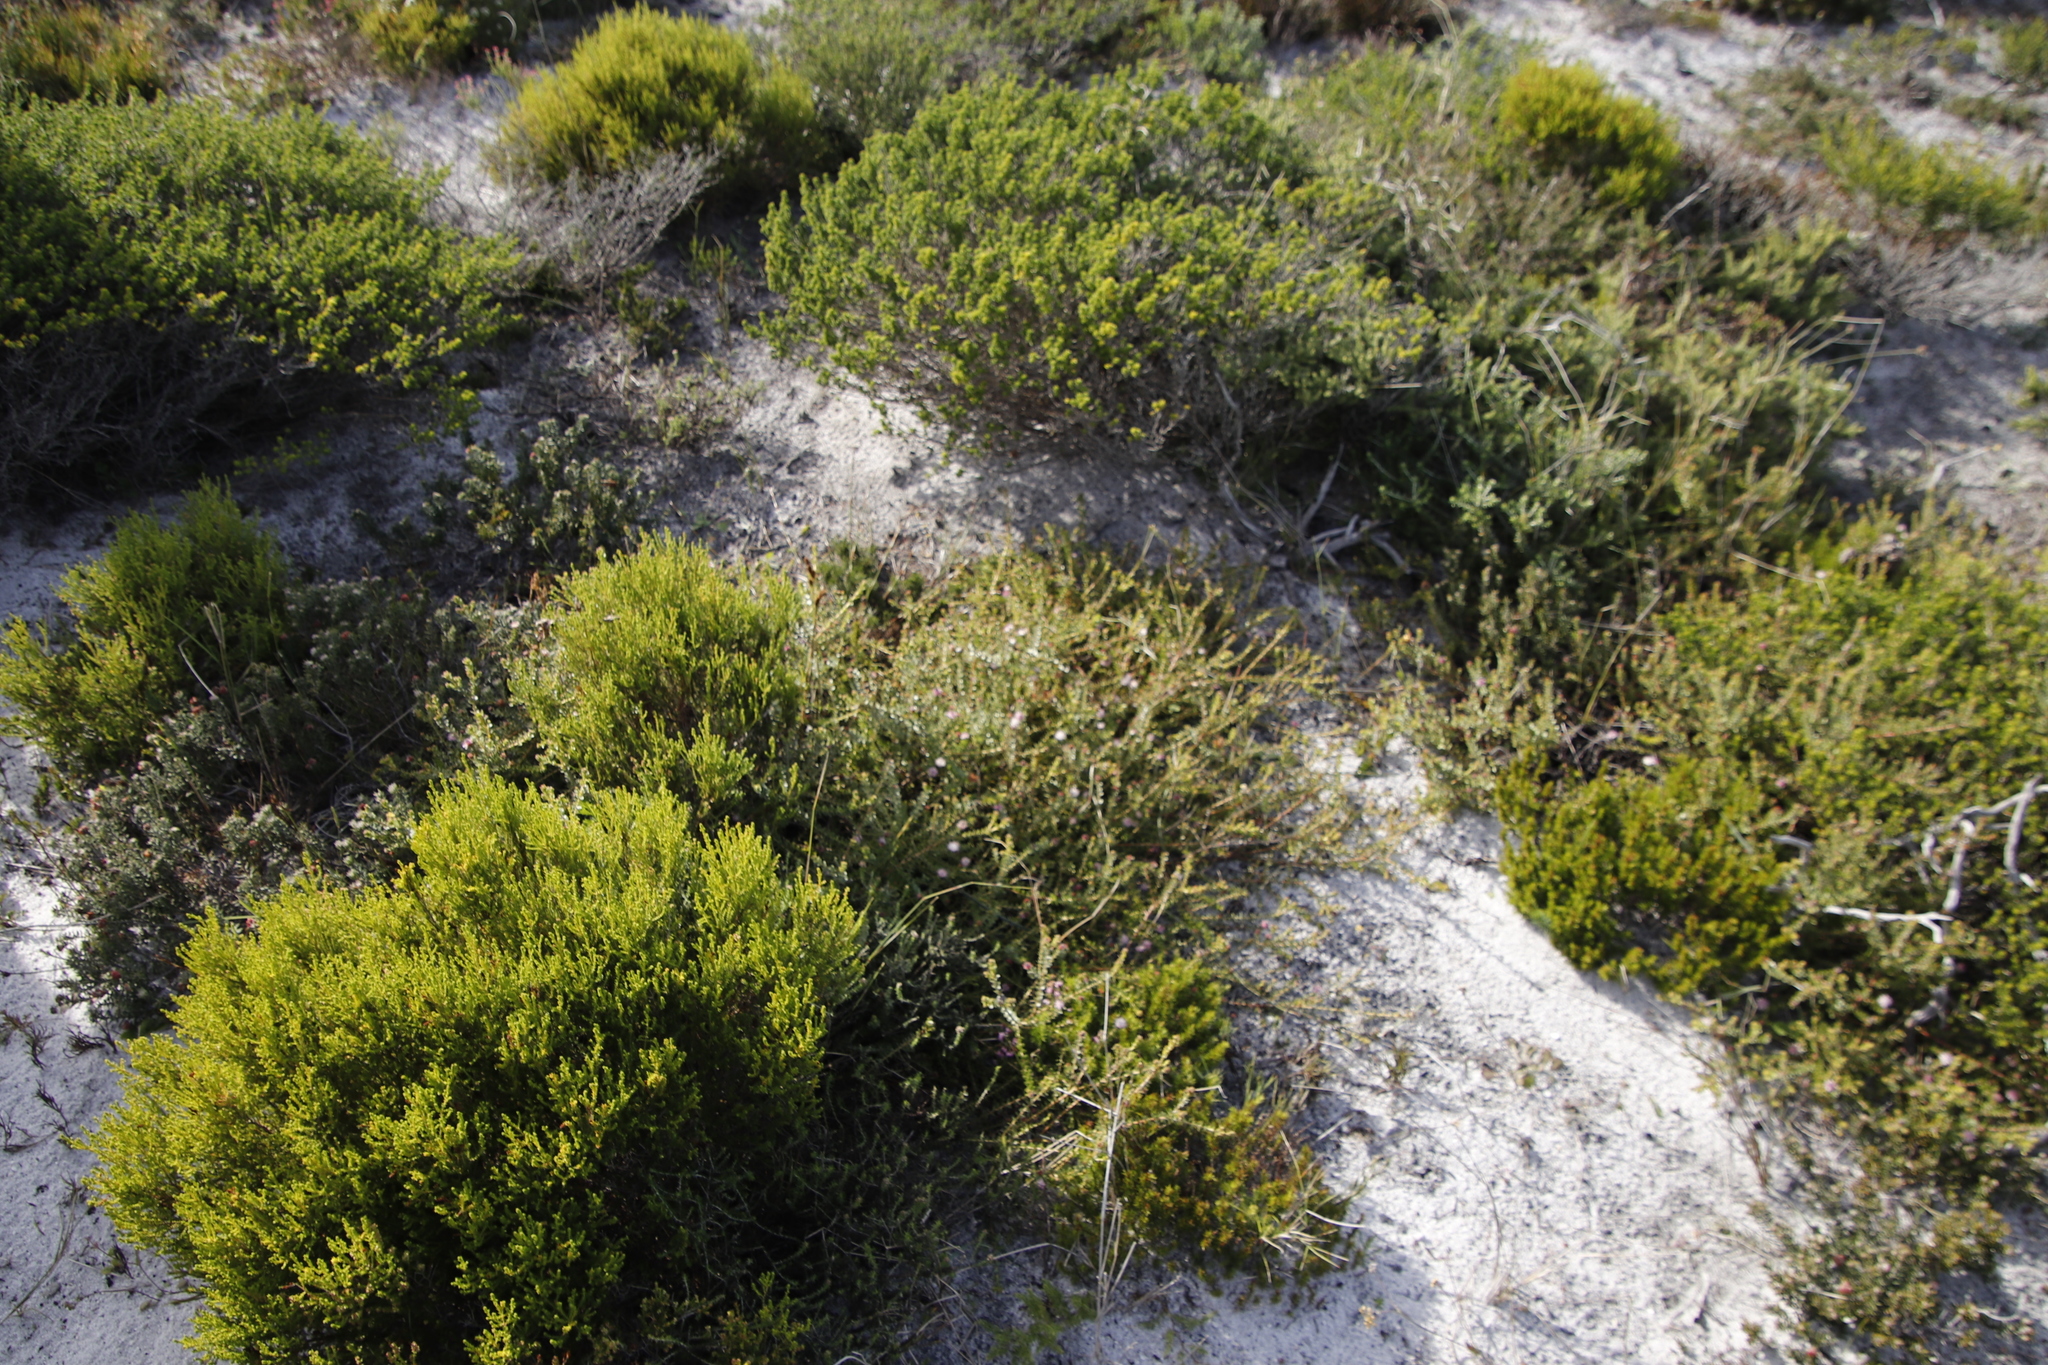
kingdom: Plantae
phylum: Tracheophyta
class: Magnoliopsida
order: Proteales
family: Proteaceae
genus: Diastella
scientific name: Diastella divaricata
